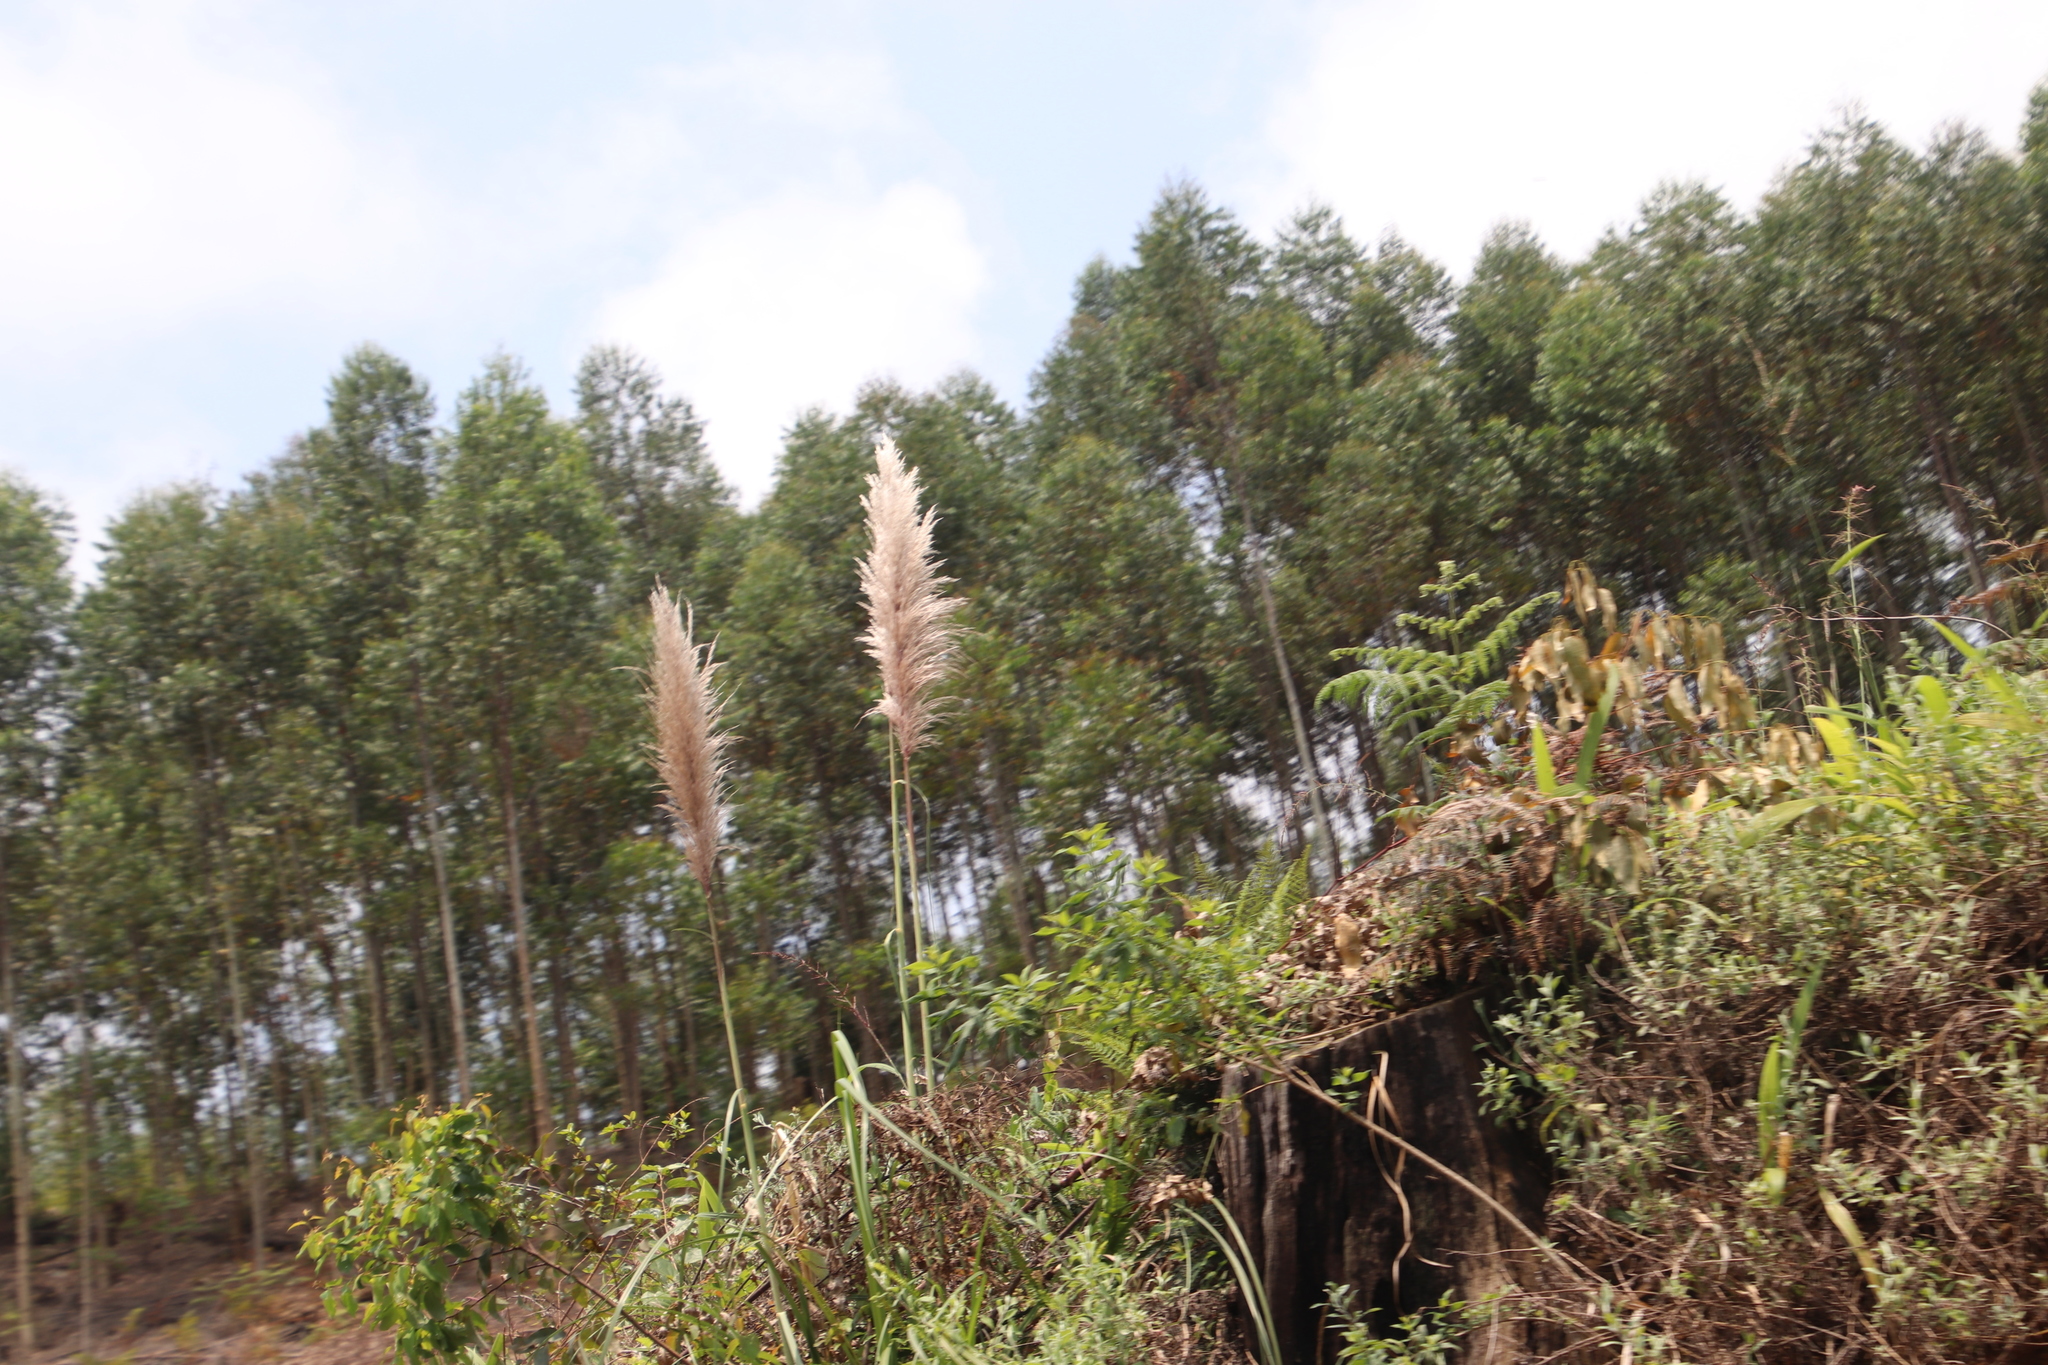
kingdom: Plantae
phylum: Tracheophyta
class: Liliopsida
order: Poales
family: Poaceae
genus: Cortaderia
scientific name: Cortaderia selloana
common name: Uruguayan pampas grass
